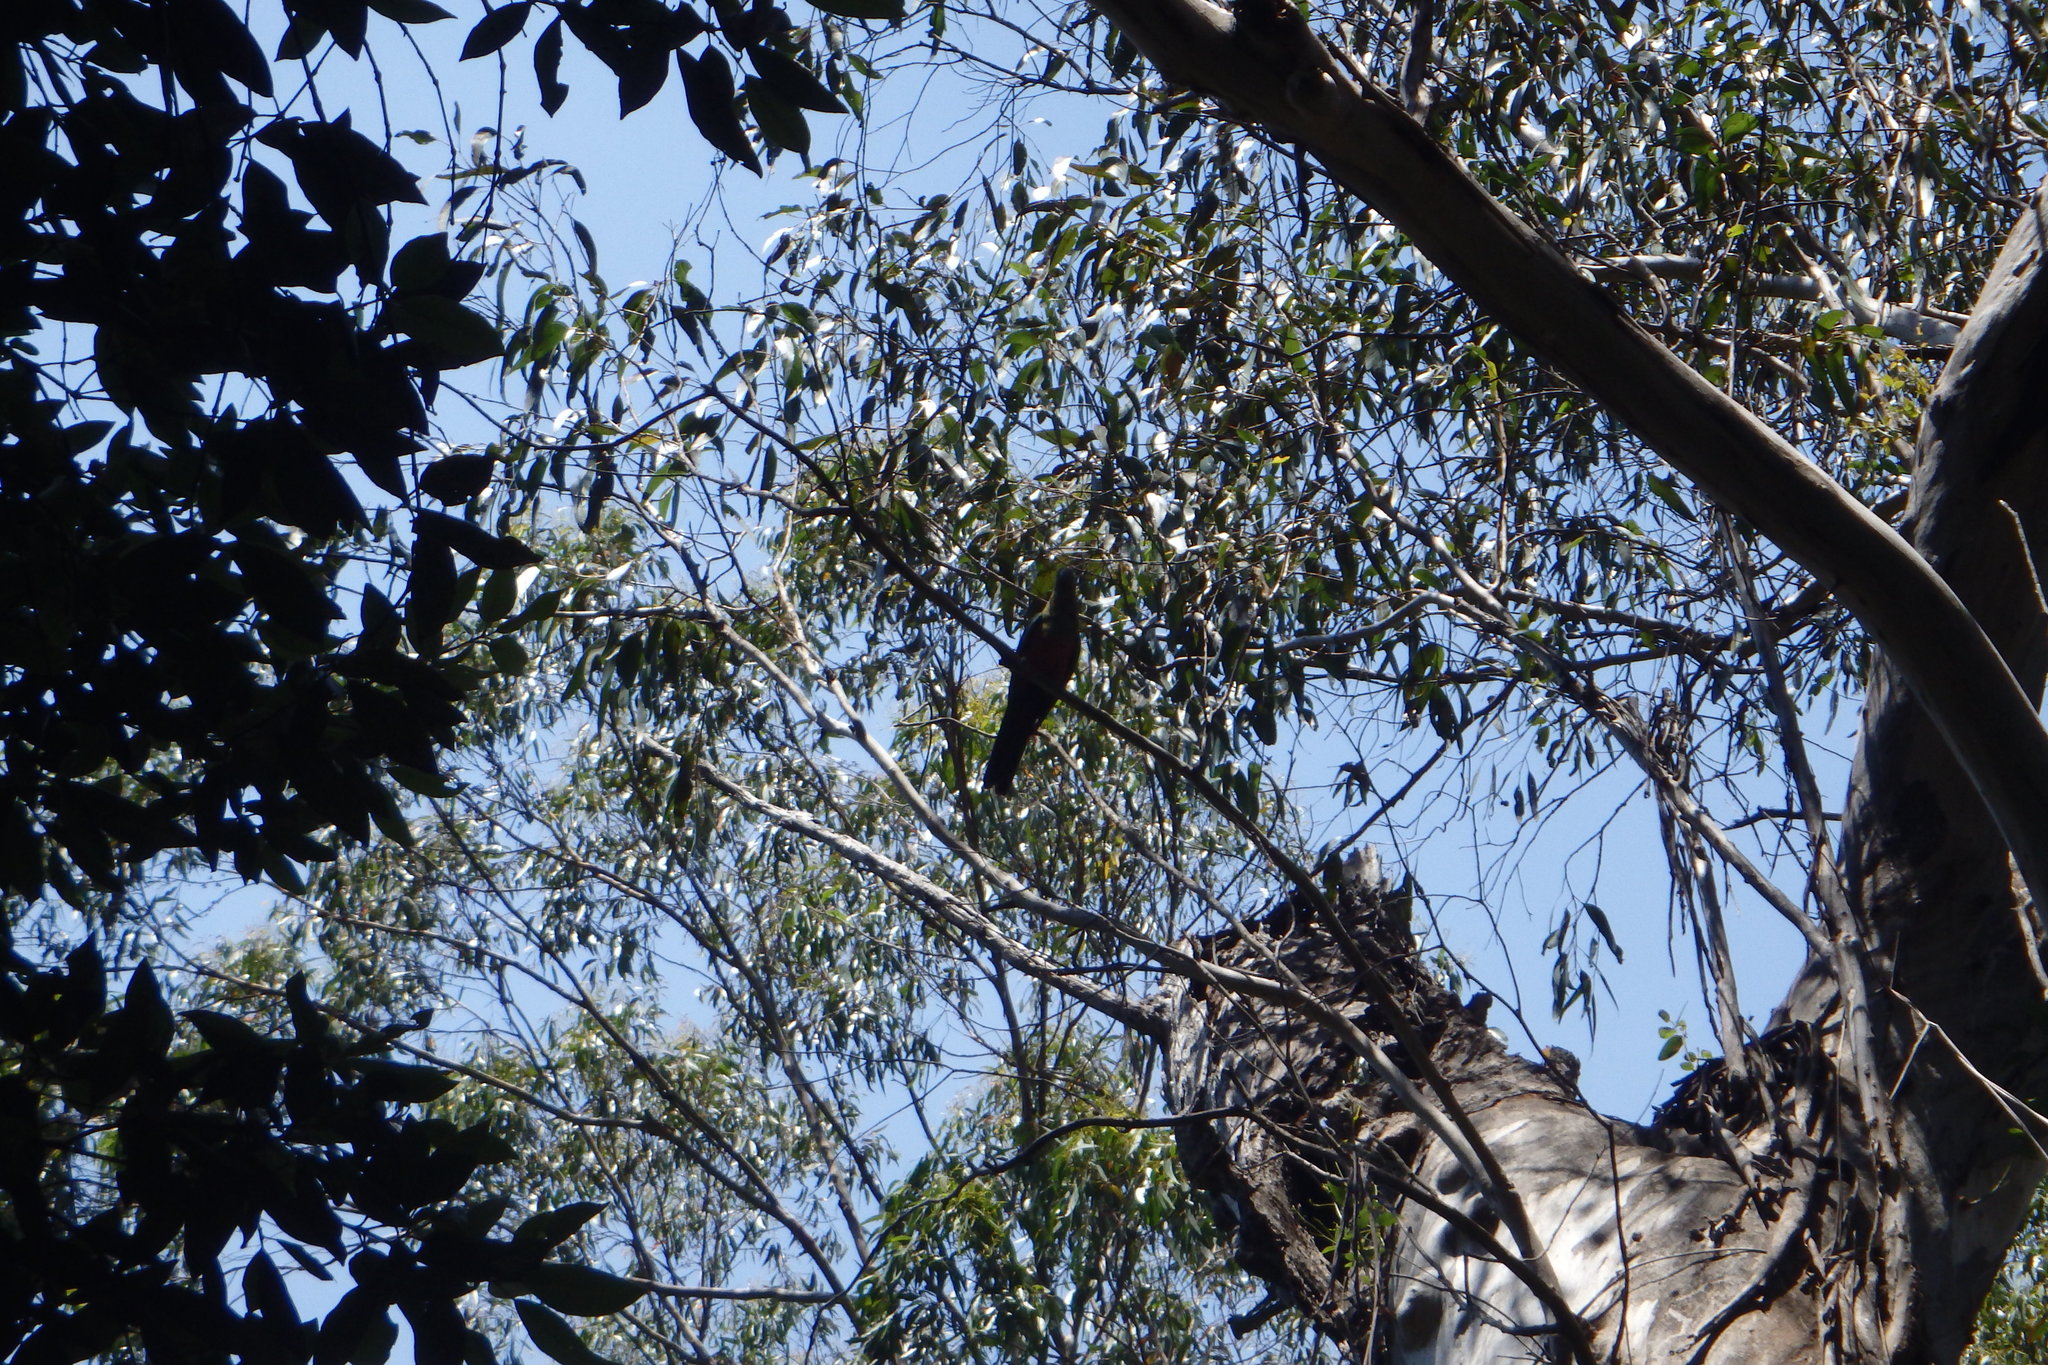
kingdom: Animalia
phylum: Chordata
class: Aves
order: Psittaciformes
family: Psittacidae
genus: Alisterus
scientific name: Alisterus scapularis
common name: Australian king parrot
